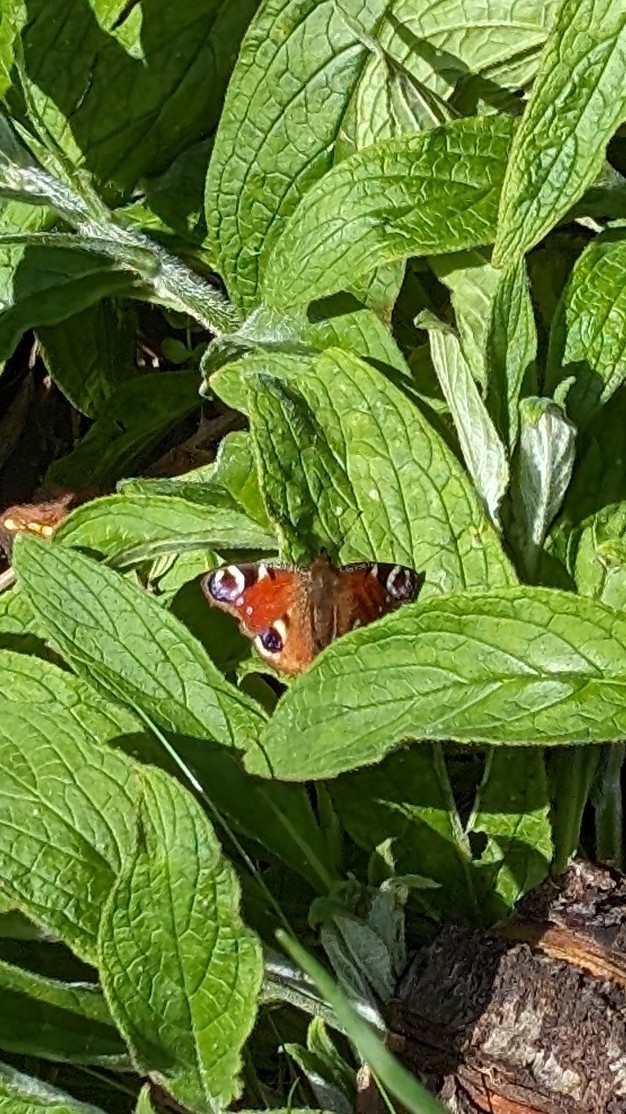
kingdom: Animalia
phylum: Arthropoda
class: Insecta
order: Lepidoptera
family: Nymphalidae
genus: Aglais
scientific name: Aglais io
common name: Peacock
